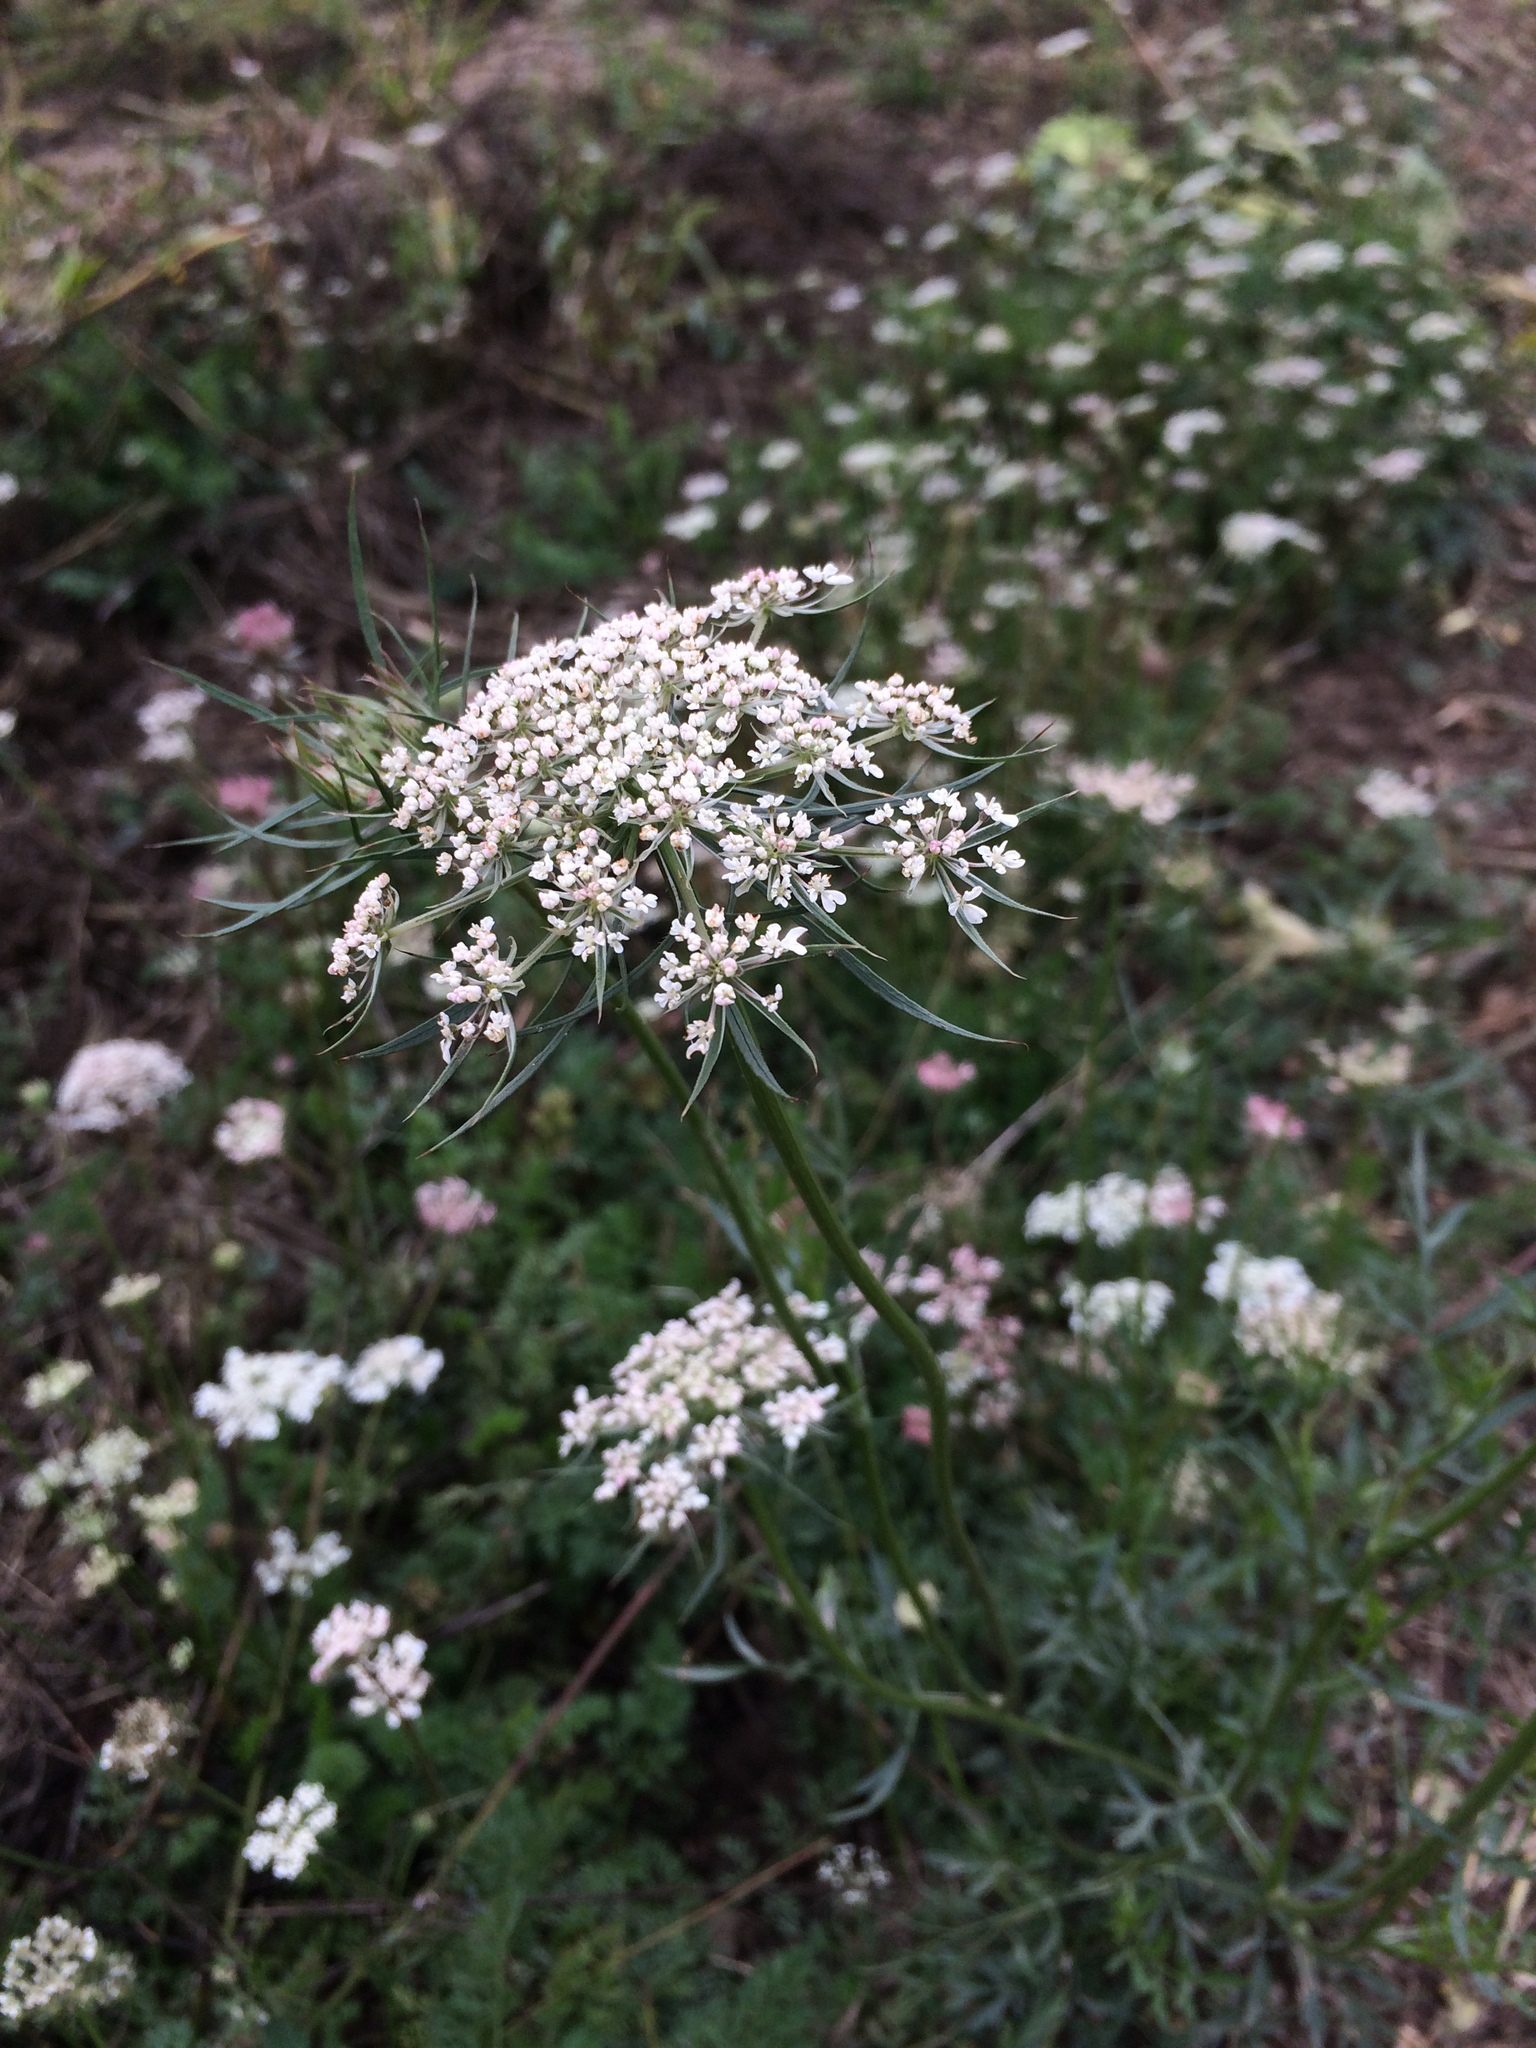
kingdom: Plantae
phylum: Tracheophyta
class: Magnoliopsida
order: Apiales
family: Apiaceae
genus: Daucus
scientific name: Daucus carota
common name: Wild carrot
